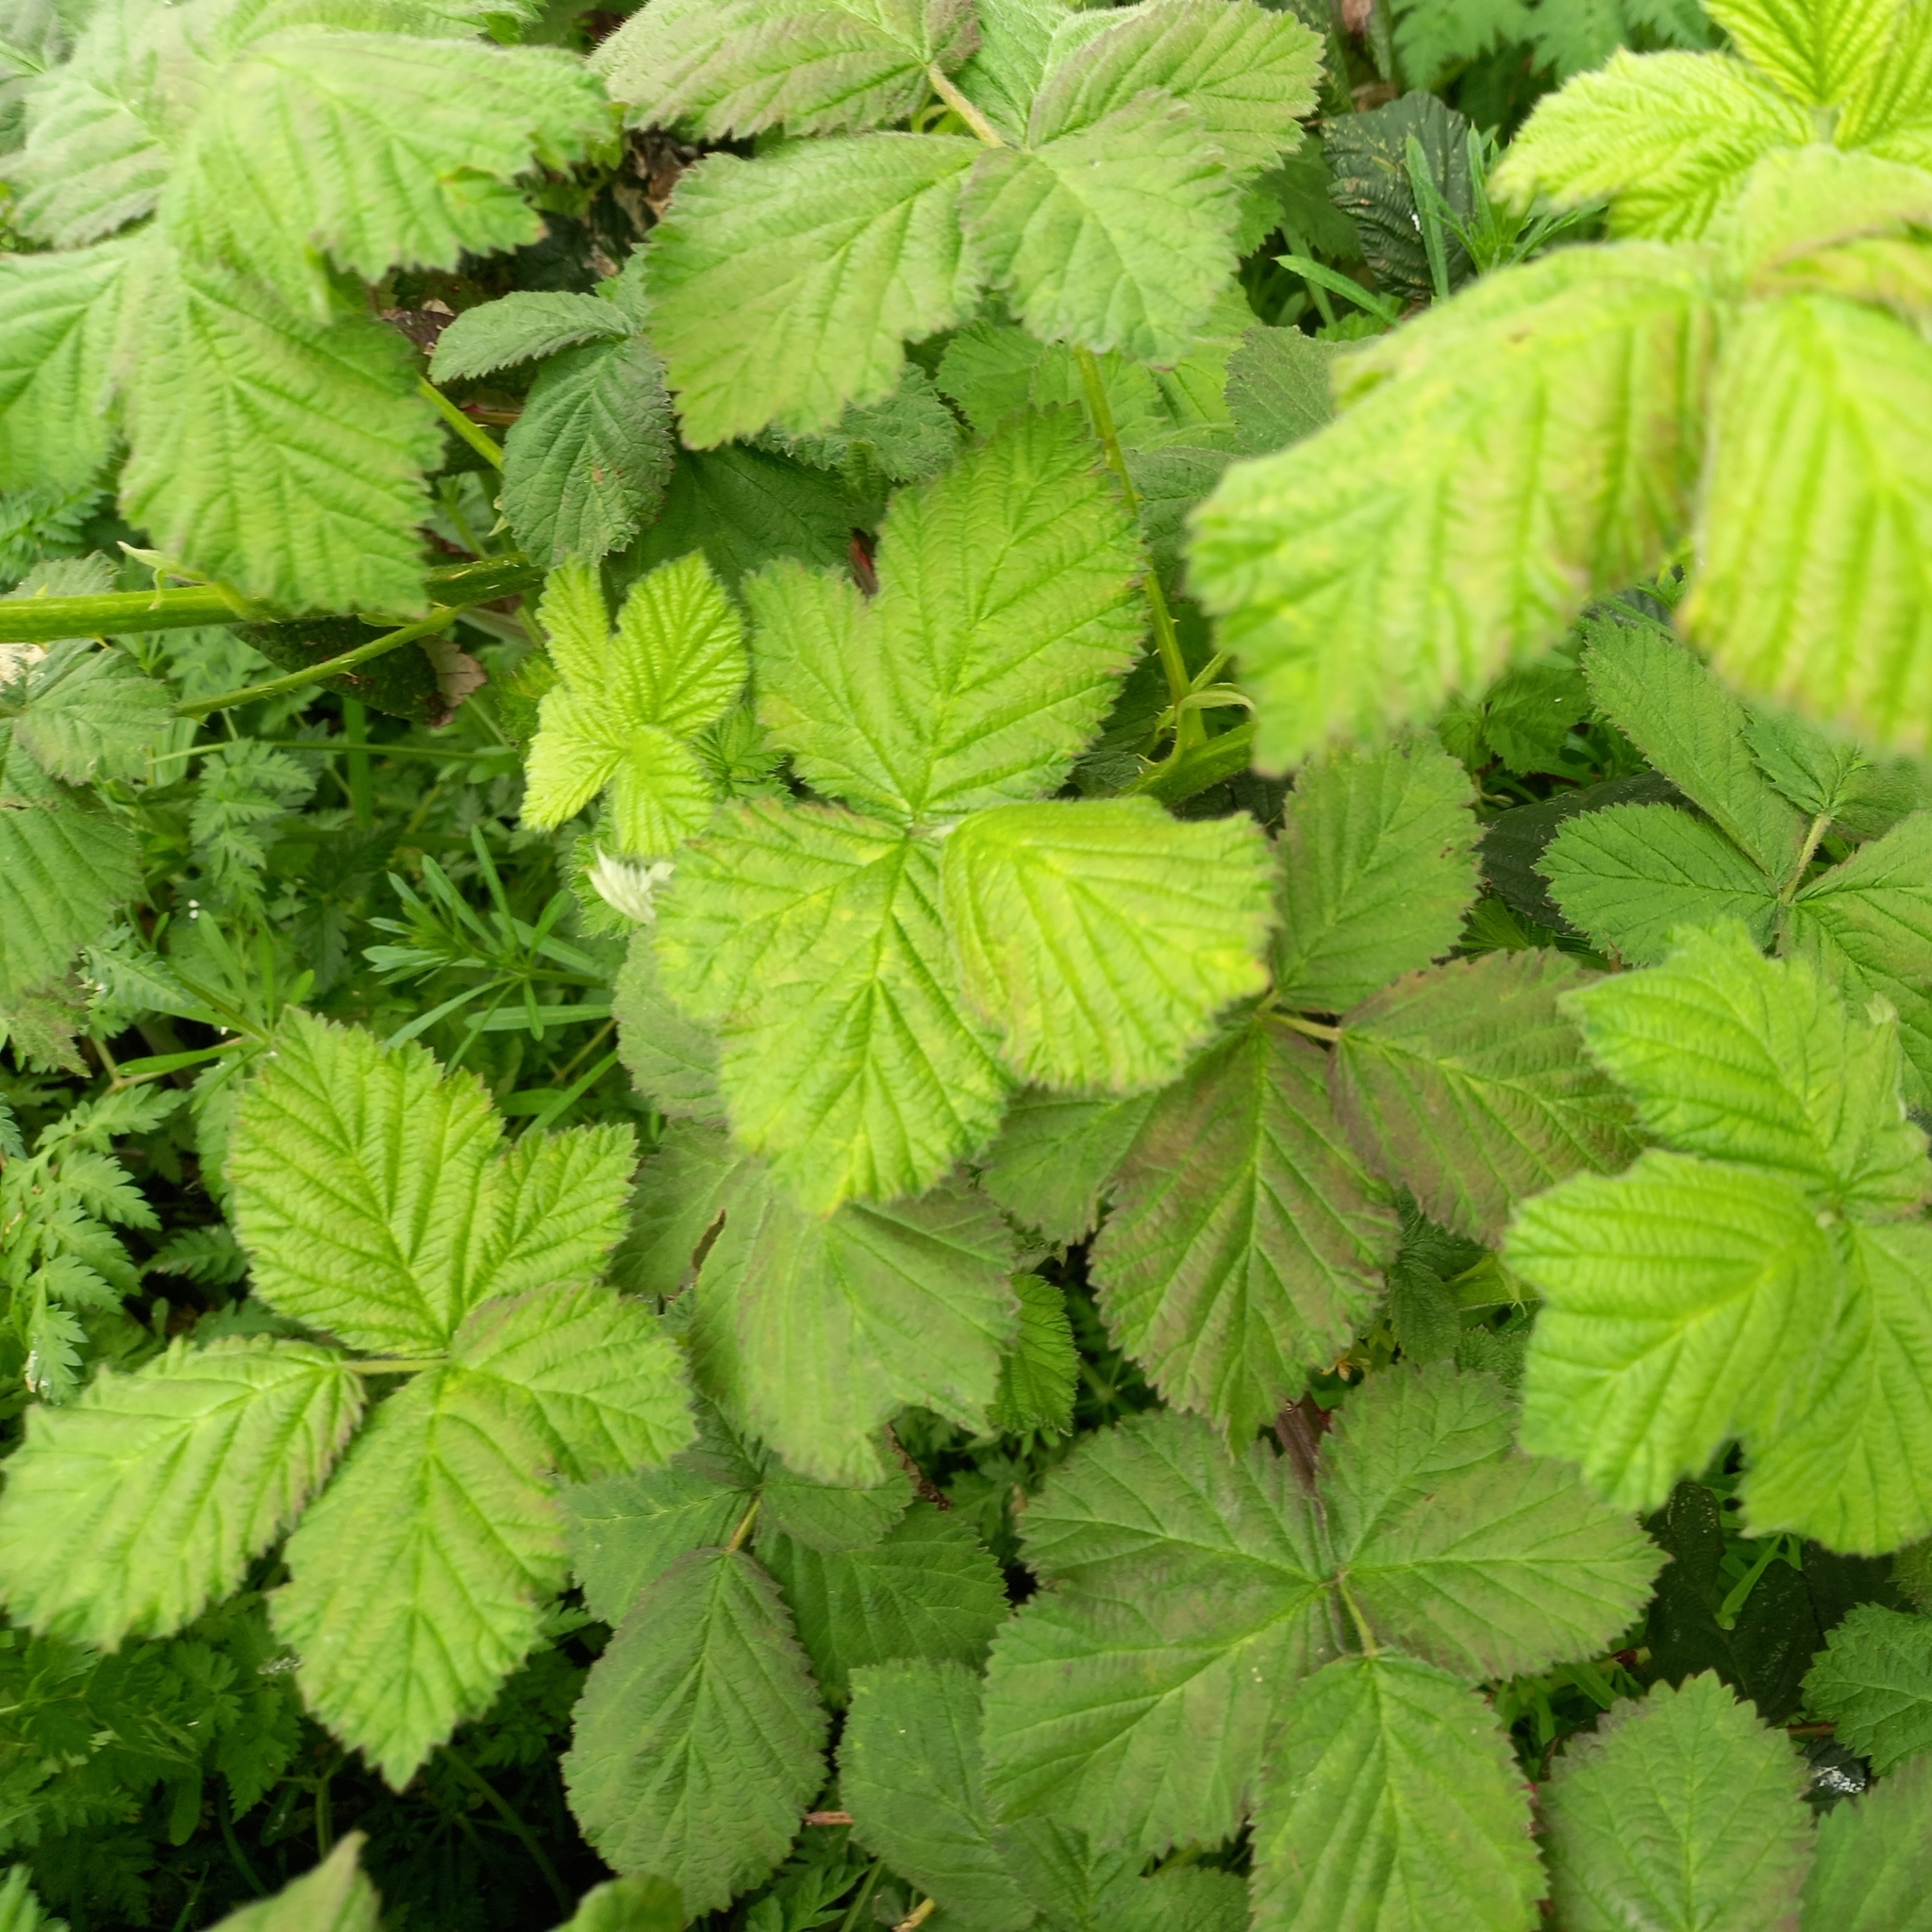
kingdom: Plantae
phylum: Tracheophyta
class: Magnoliopsida
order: Rosales
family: Rosaceae
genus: Rubus
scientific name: Rubus fruticosus
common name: Blackberry, bramble
